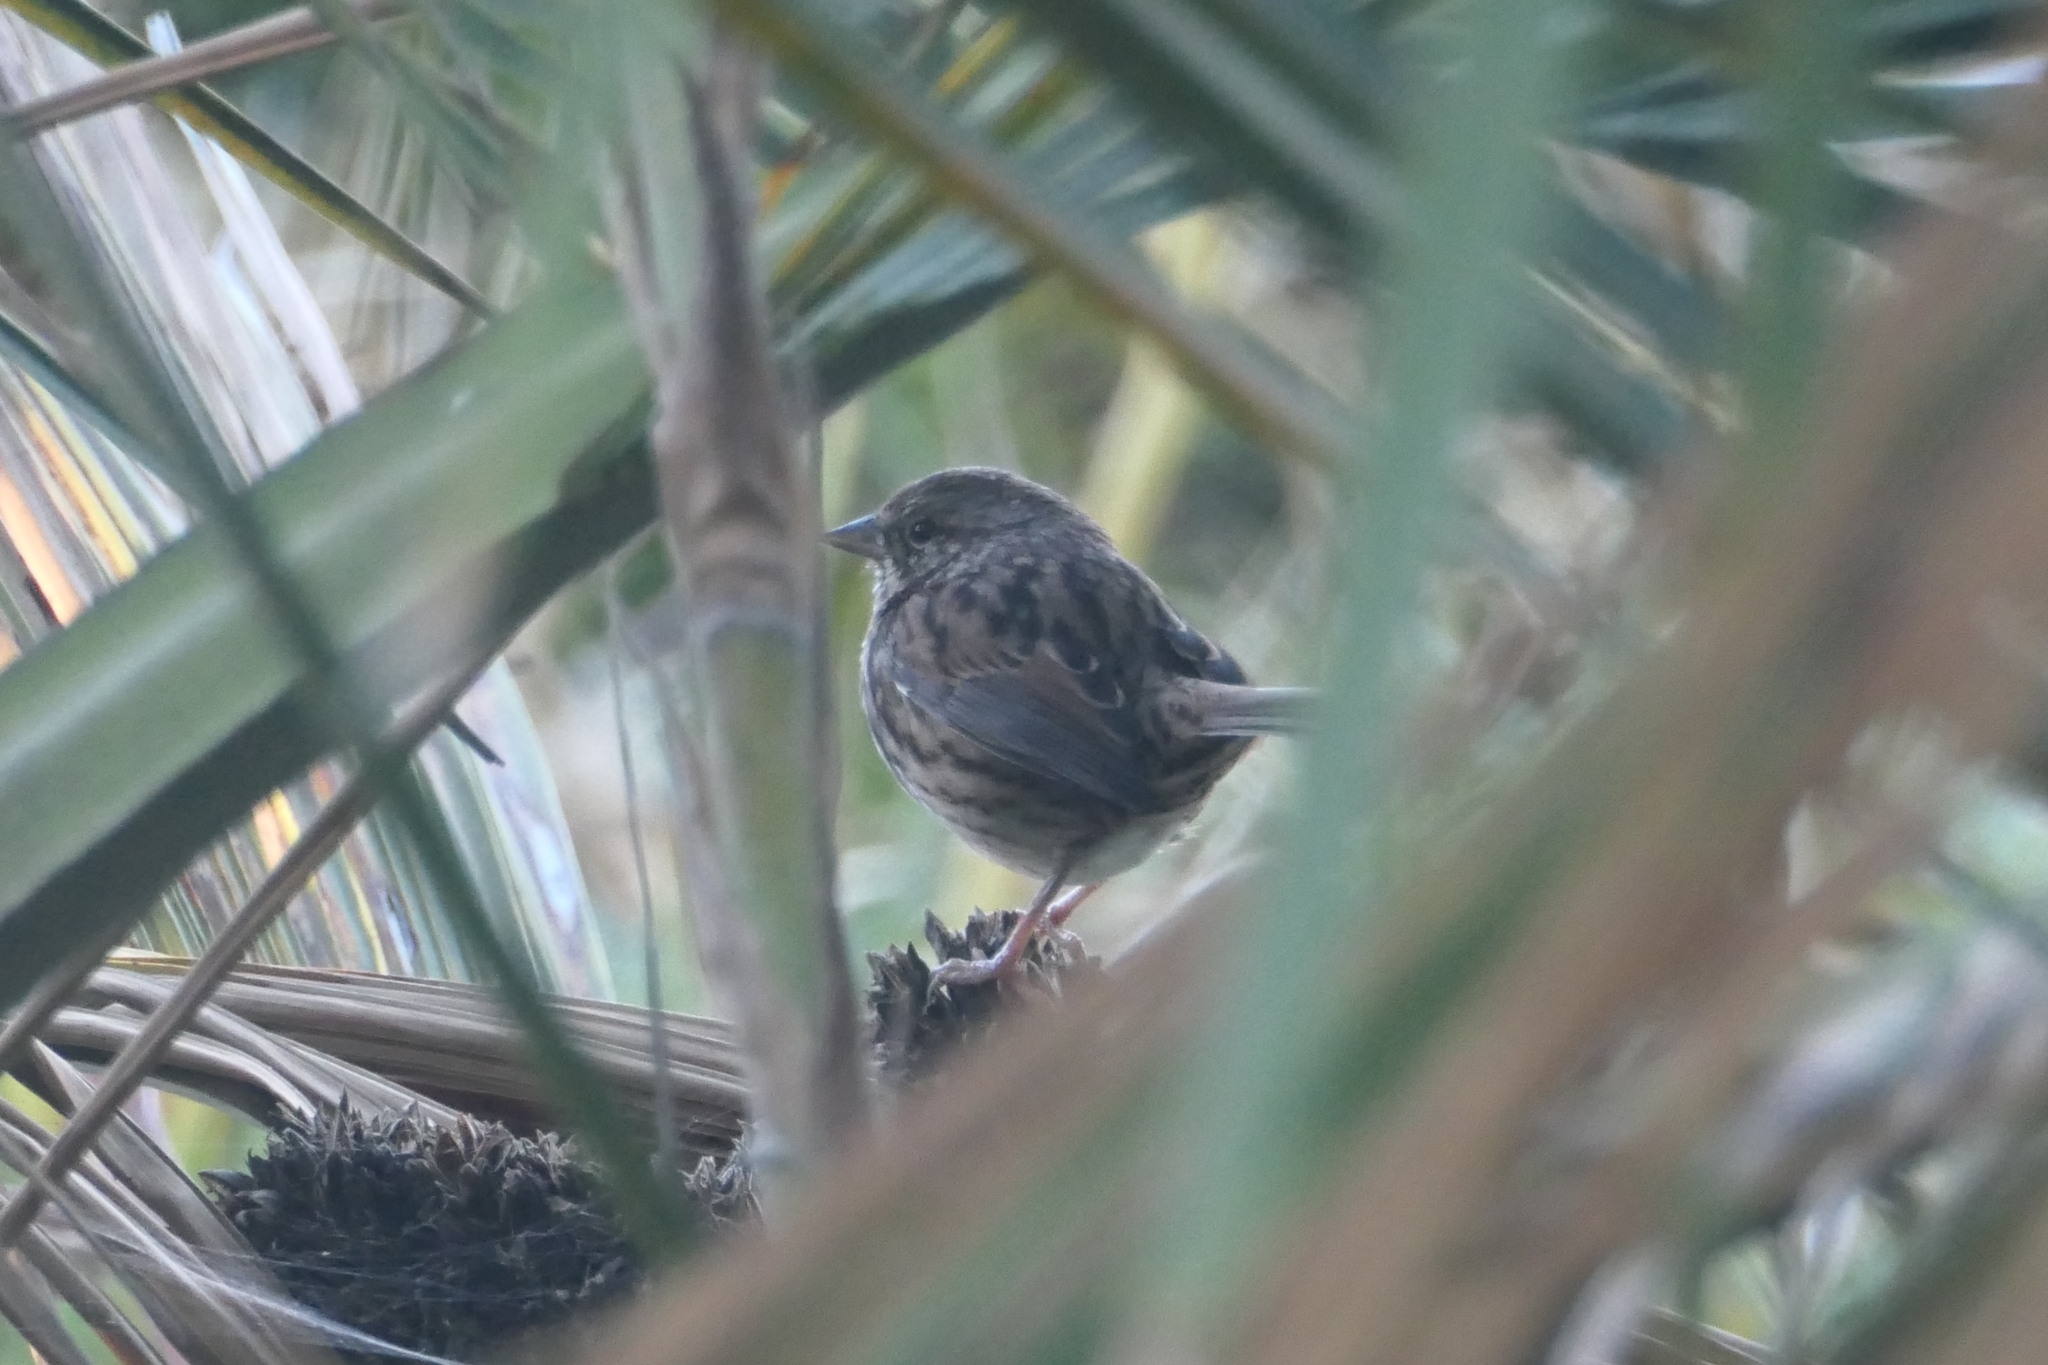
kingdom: Animalia
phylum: Chordata
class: Aves
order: Passeriformes
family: Passerellidae
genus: Melospiza
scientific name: Melospiza melodia
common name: Song sparrow
